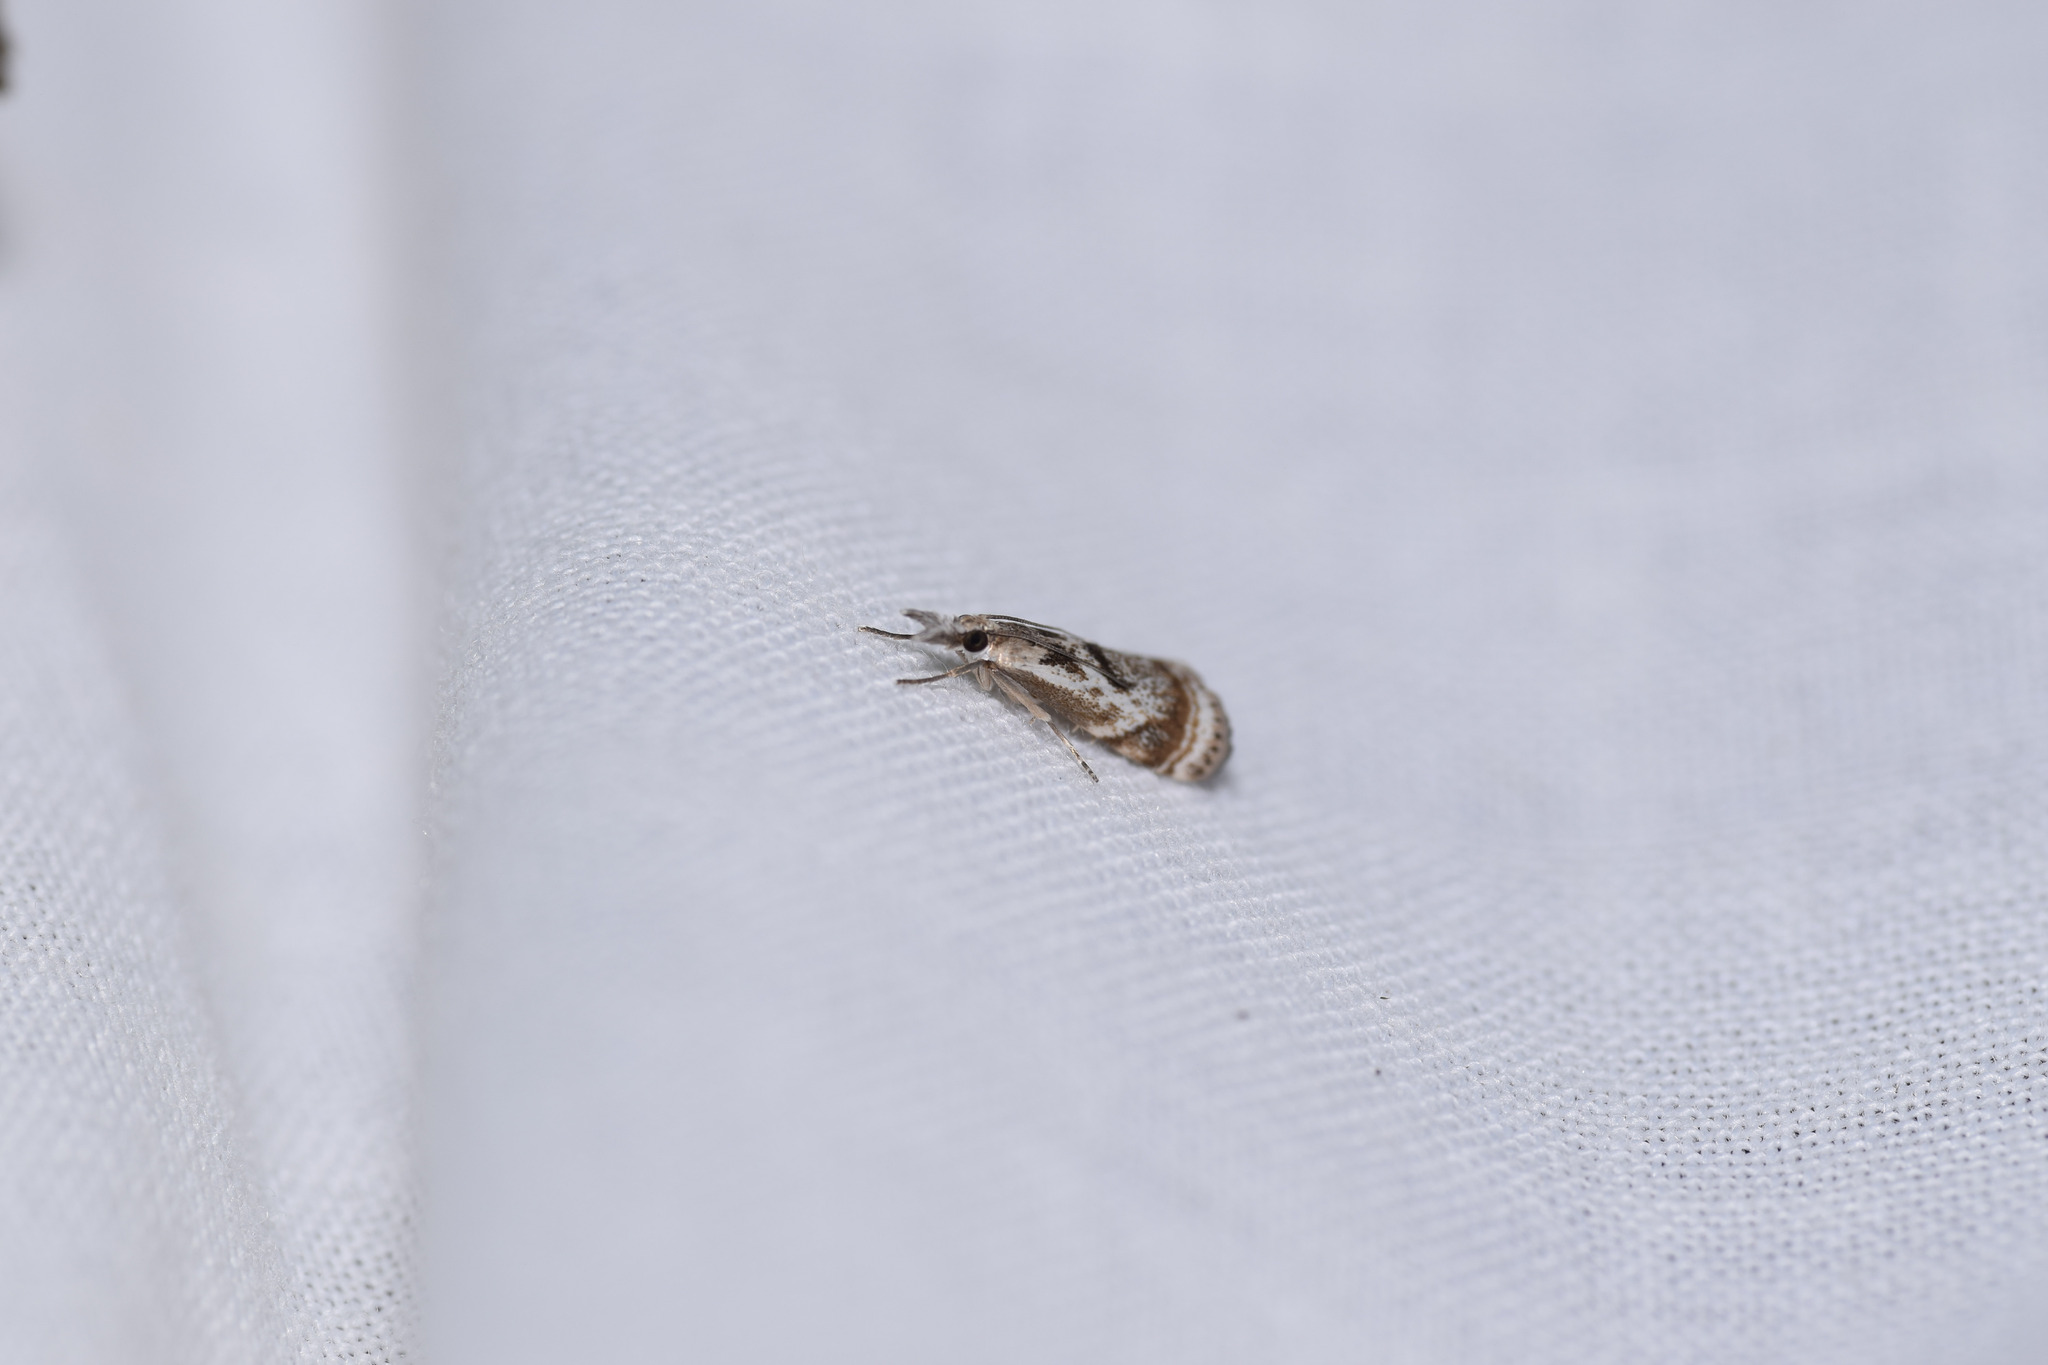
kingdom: Animalia
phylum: Arthropoda
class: Insecta
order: Lepidoptera
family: Crambidae
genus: Microcrambus
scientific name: Microcrambus elegans
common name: Elegant grass-veneer
